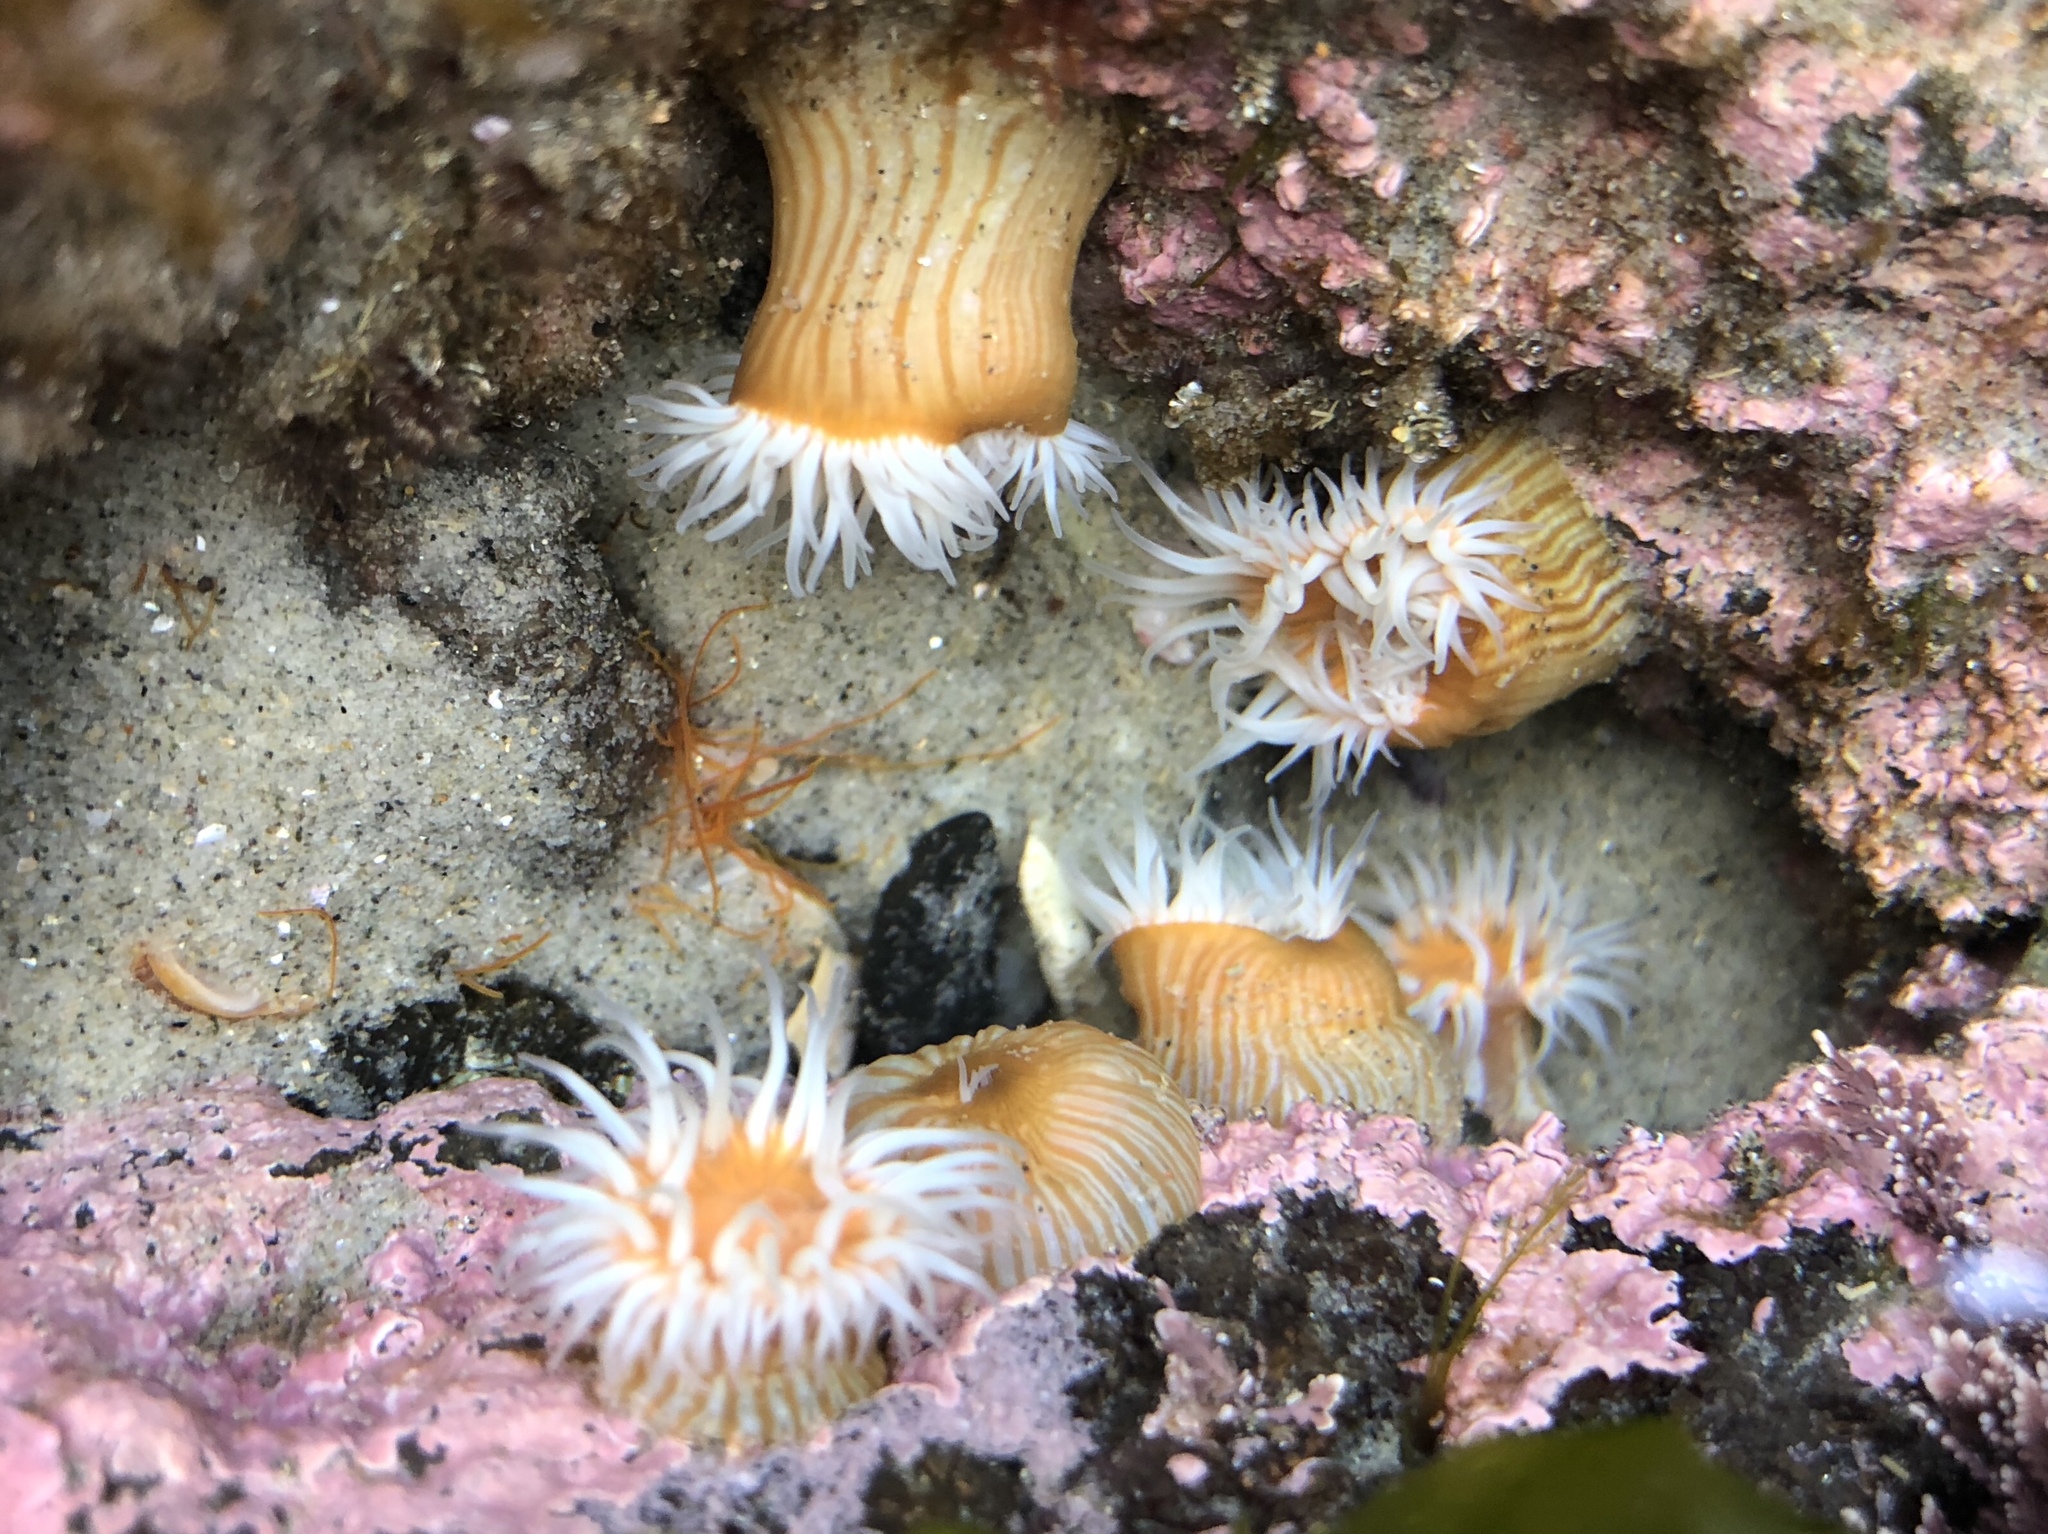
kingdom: Animalia
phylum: Cnidaria
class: Anthozoa
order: Actiniaria
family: Sagartiidae
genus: Anthothoe
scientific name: Anthothoe albocincta
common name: Orange striped anemone
